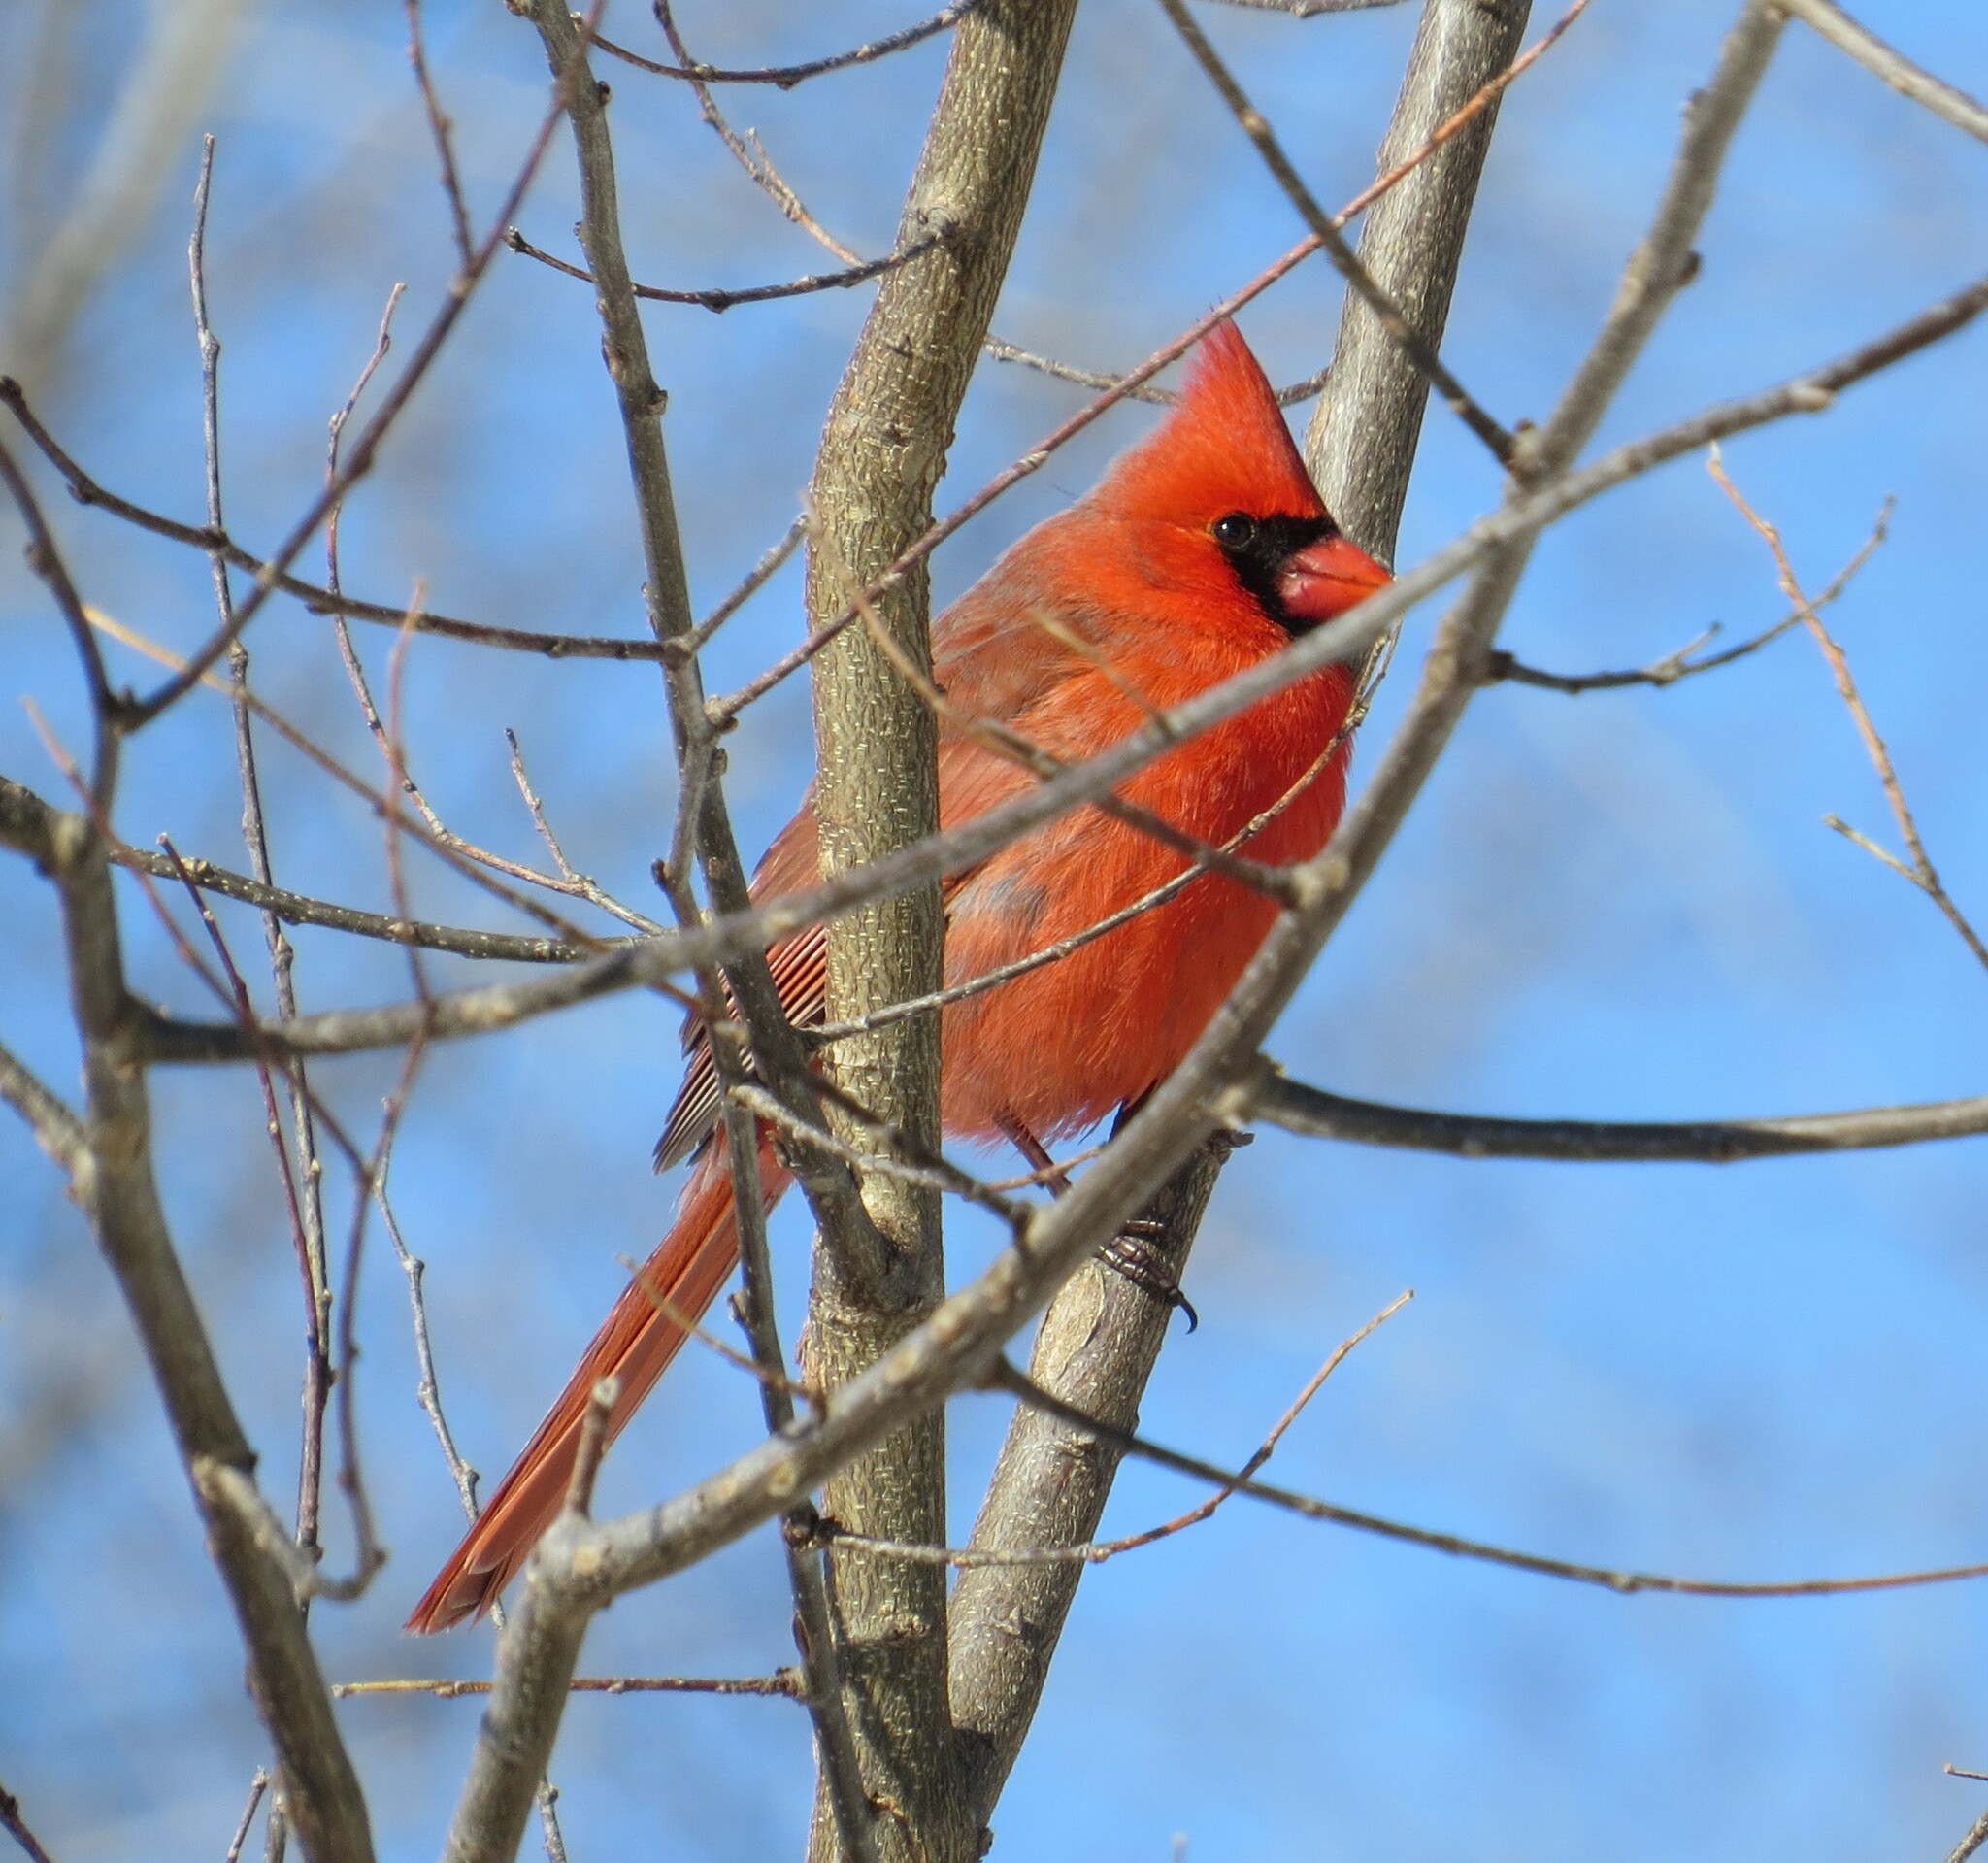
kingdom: Animalia
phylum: Chordata
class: Aves
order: Passeriformes
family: Cardinalidae
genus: Cardinalis
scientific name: Cardinalis cardinalis
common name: Northern cardinal
